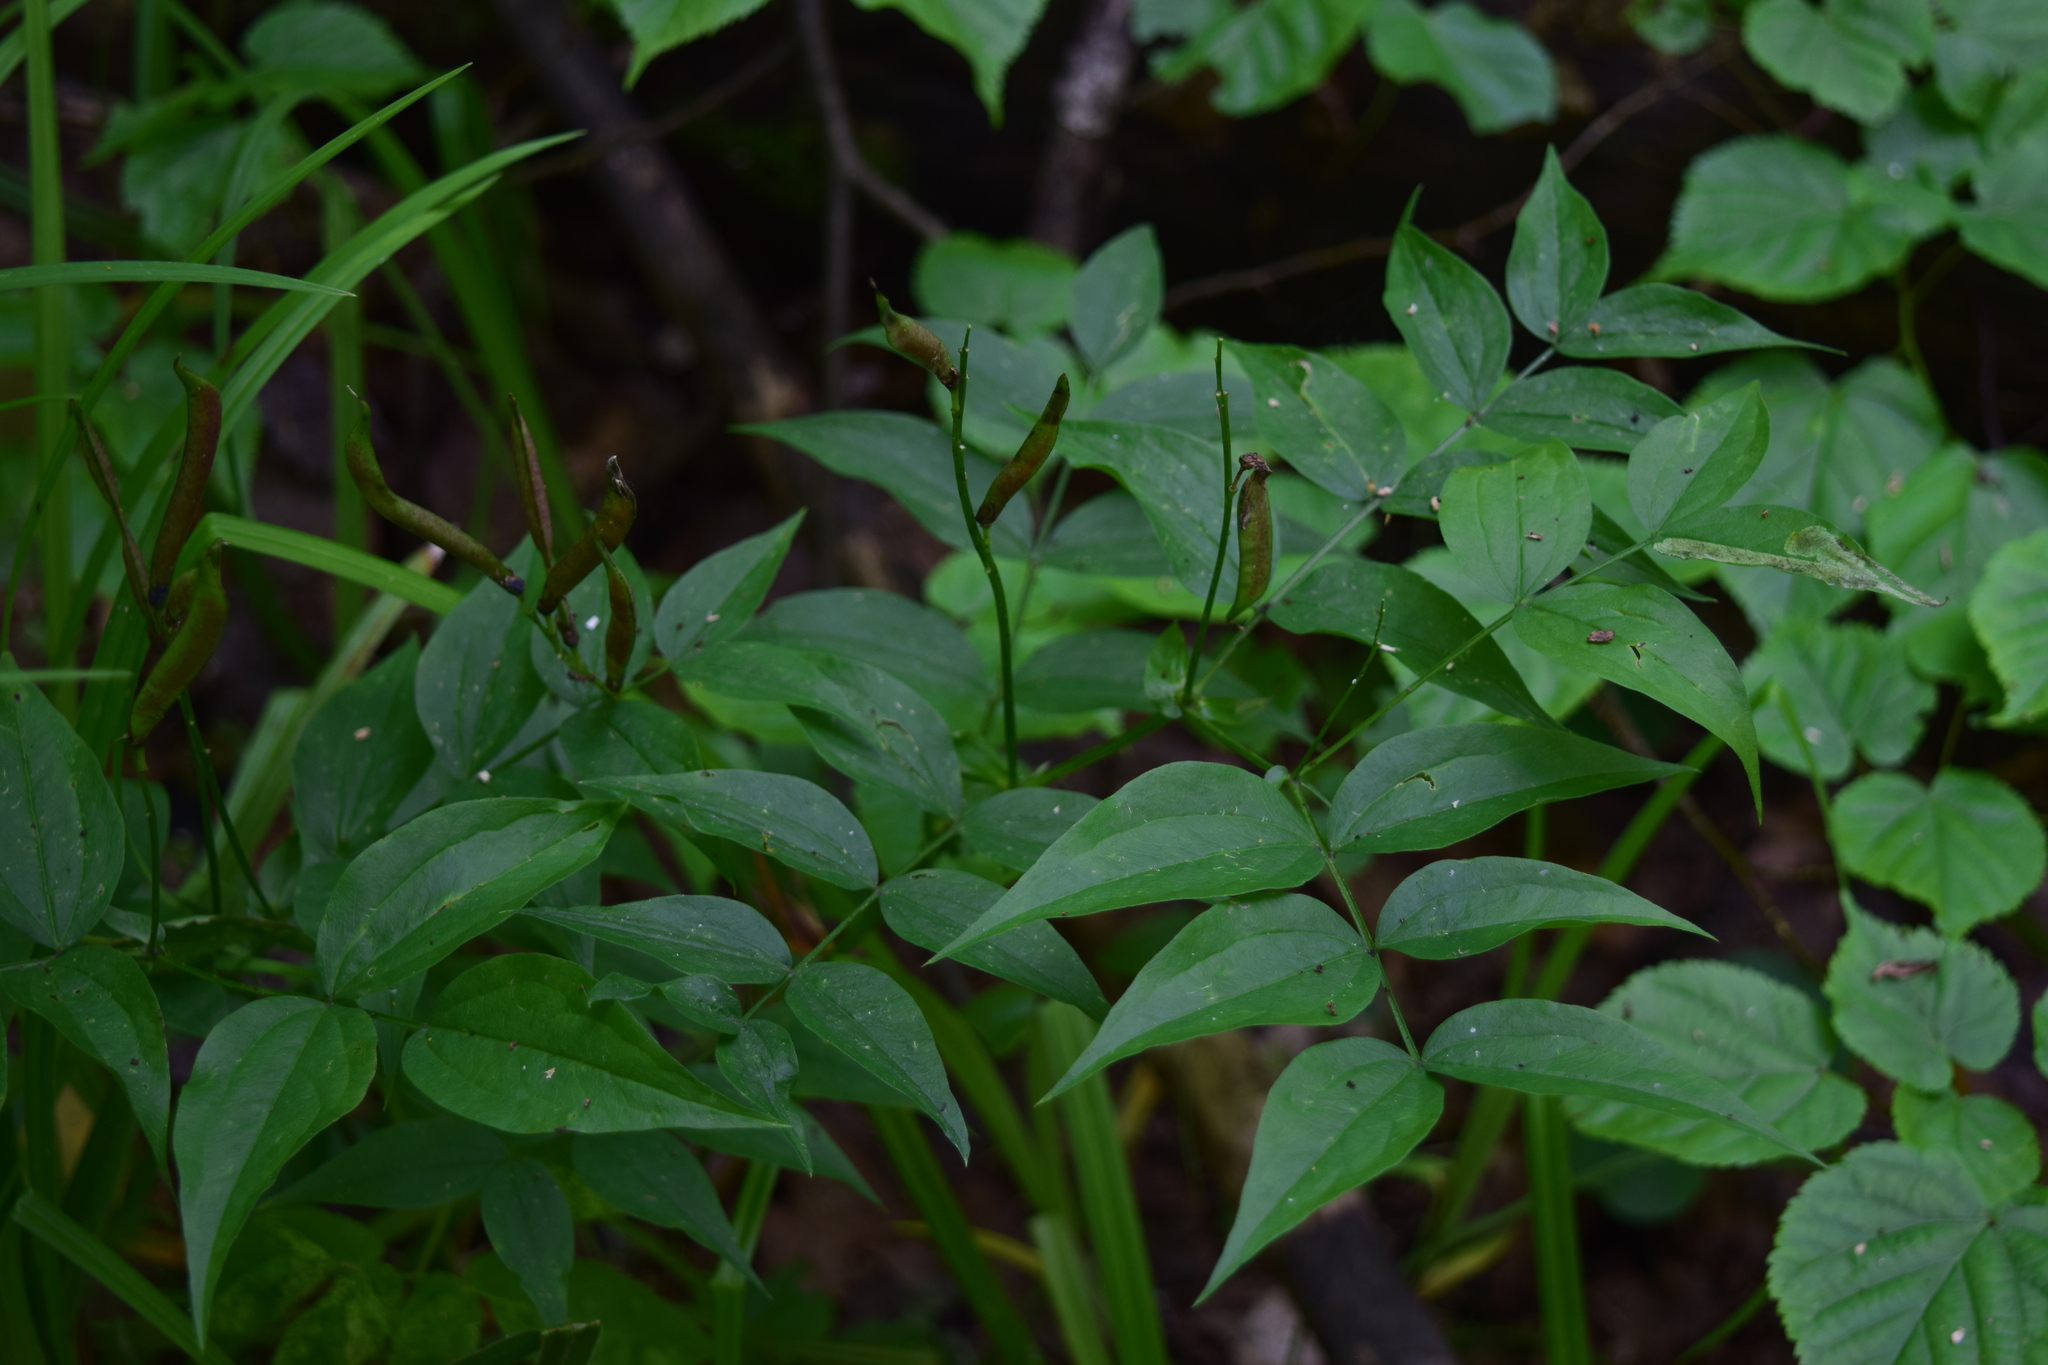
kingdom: Plantae
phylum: Tracheophyta
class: Magnoliopsida
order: Fabales
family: Fabaceae
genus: Lathyrus
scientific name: Lathyrus vernus
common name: Spring pea
